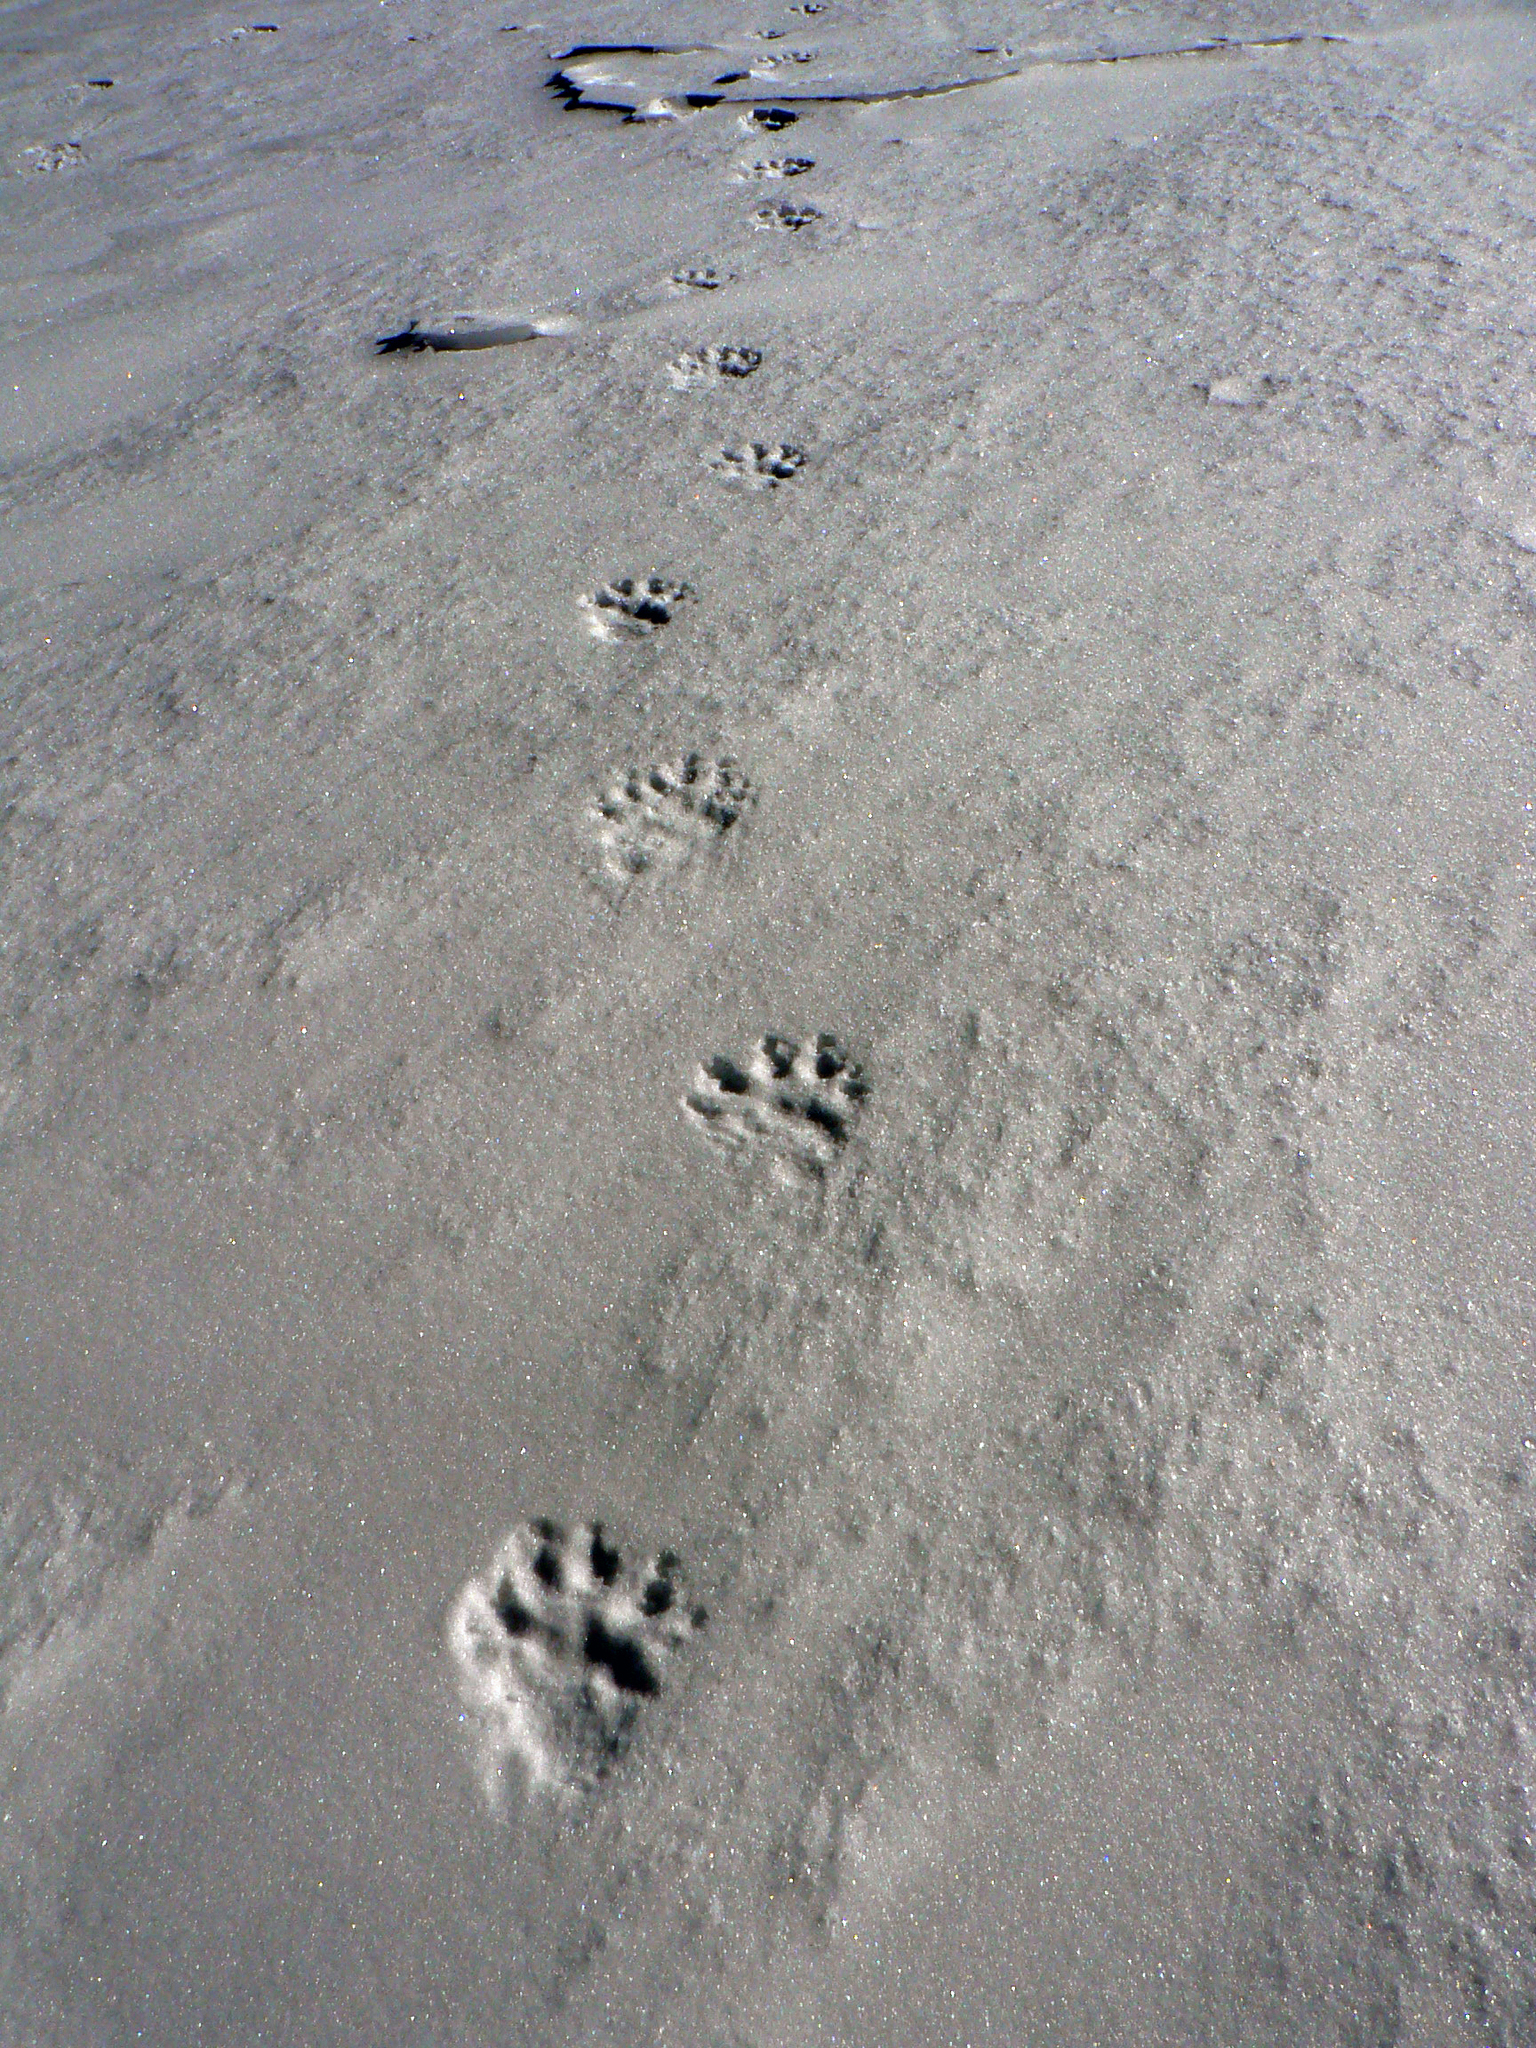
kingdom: Animalia
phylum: Chordata
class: Mammalia
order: Carnivora
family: Mustelidae
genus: Gulo
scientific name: Gulo gulo
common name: Wolverine
